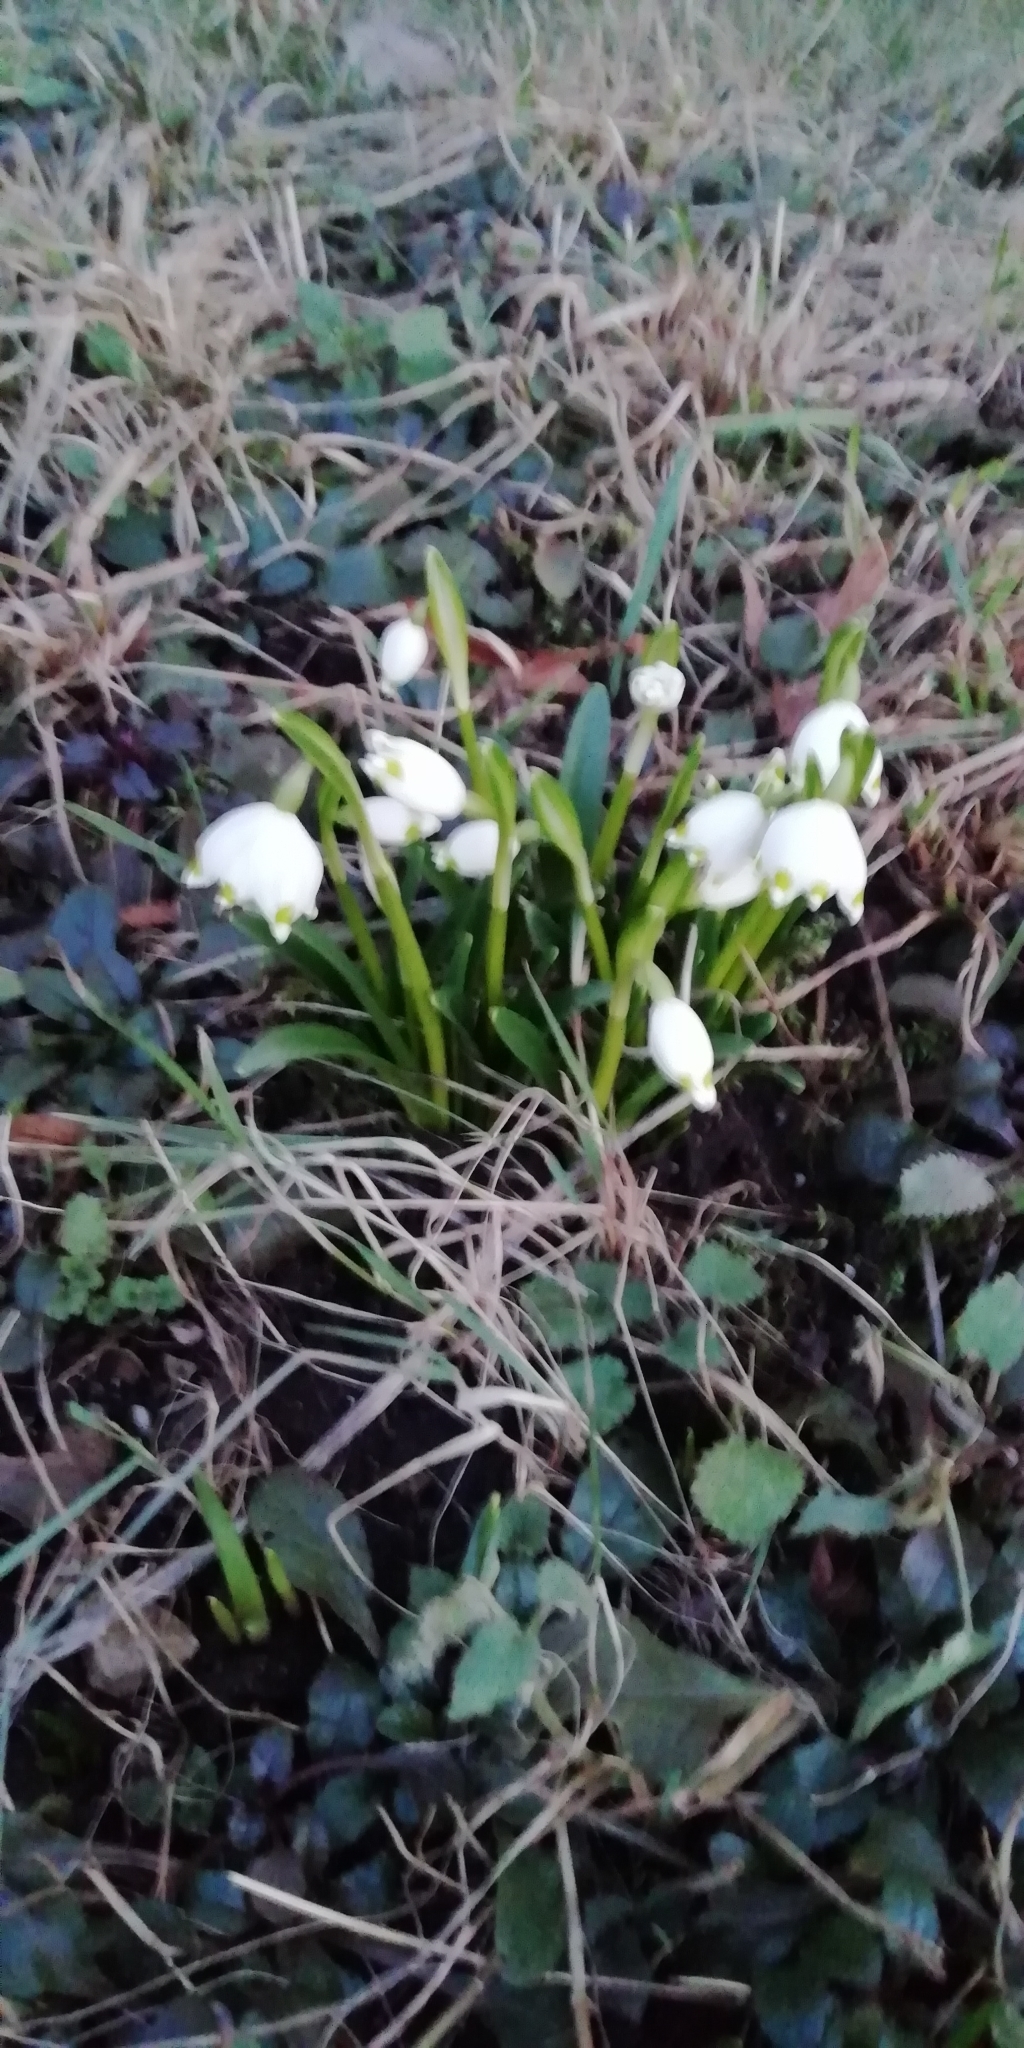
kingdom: Plantae
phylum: Tracheophyta
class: Liliopsida
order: Asparagales
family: Amaryllidaceae
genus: Leucojum
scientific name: Leucojum vernum
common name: Spring snowflake
